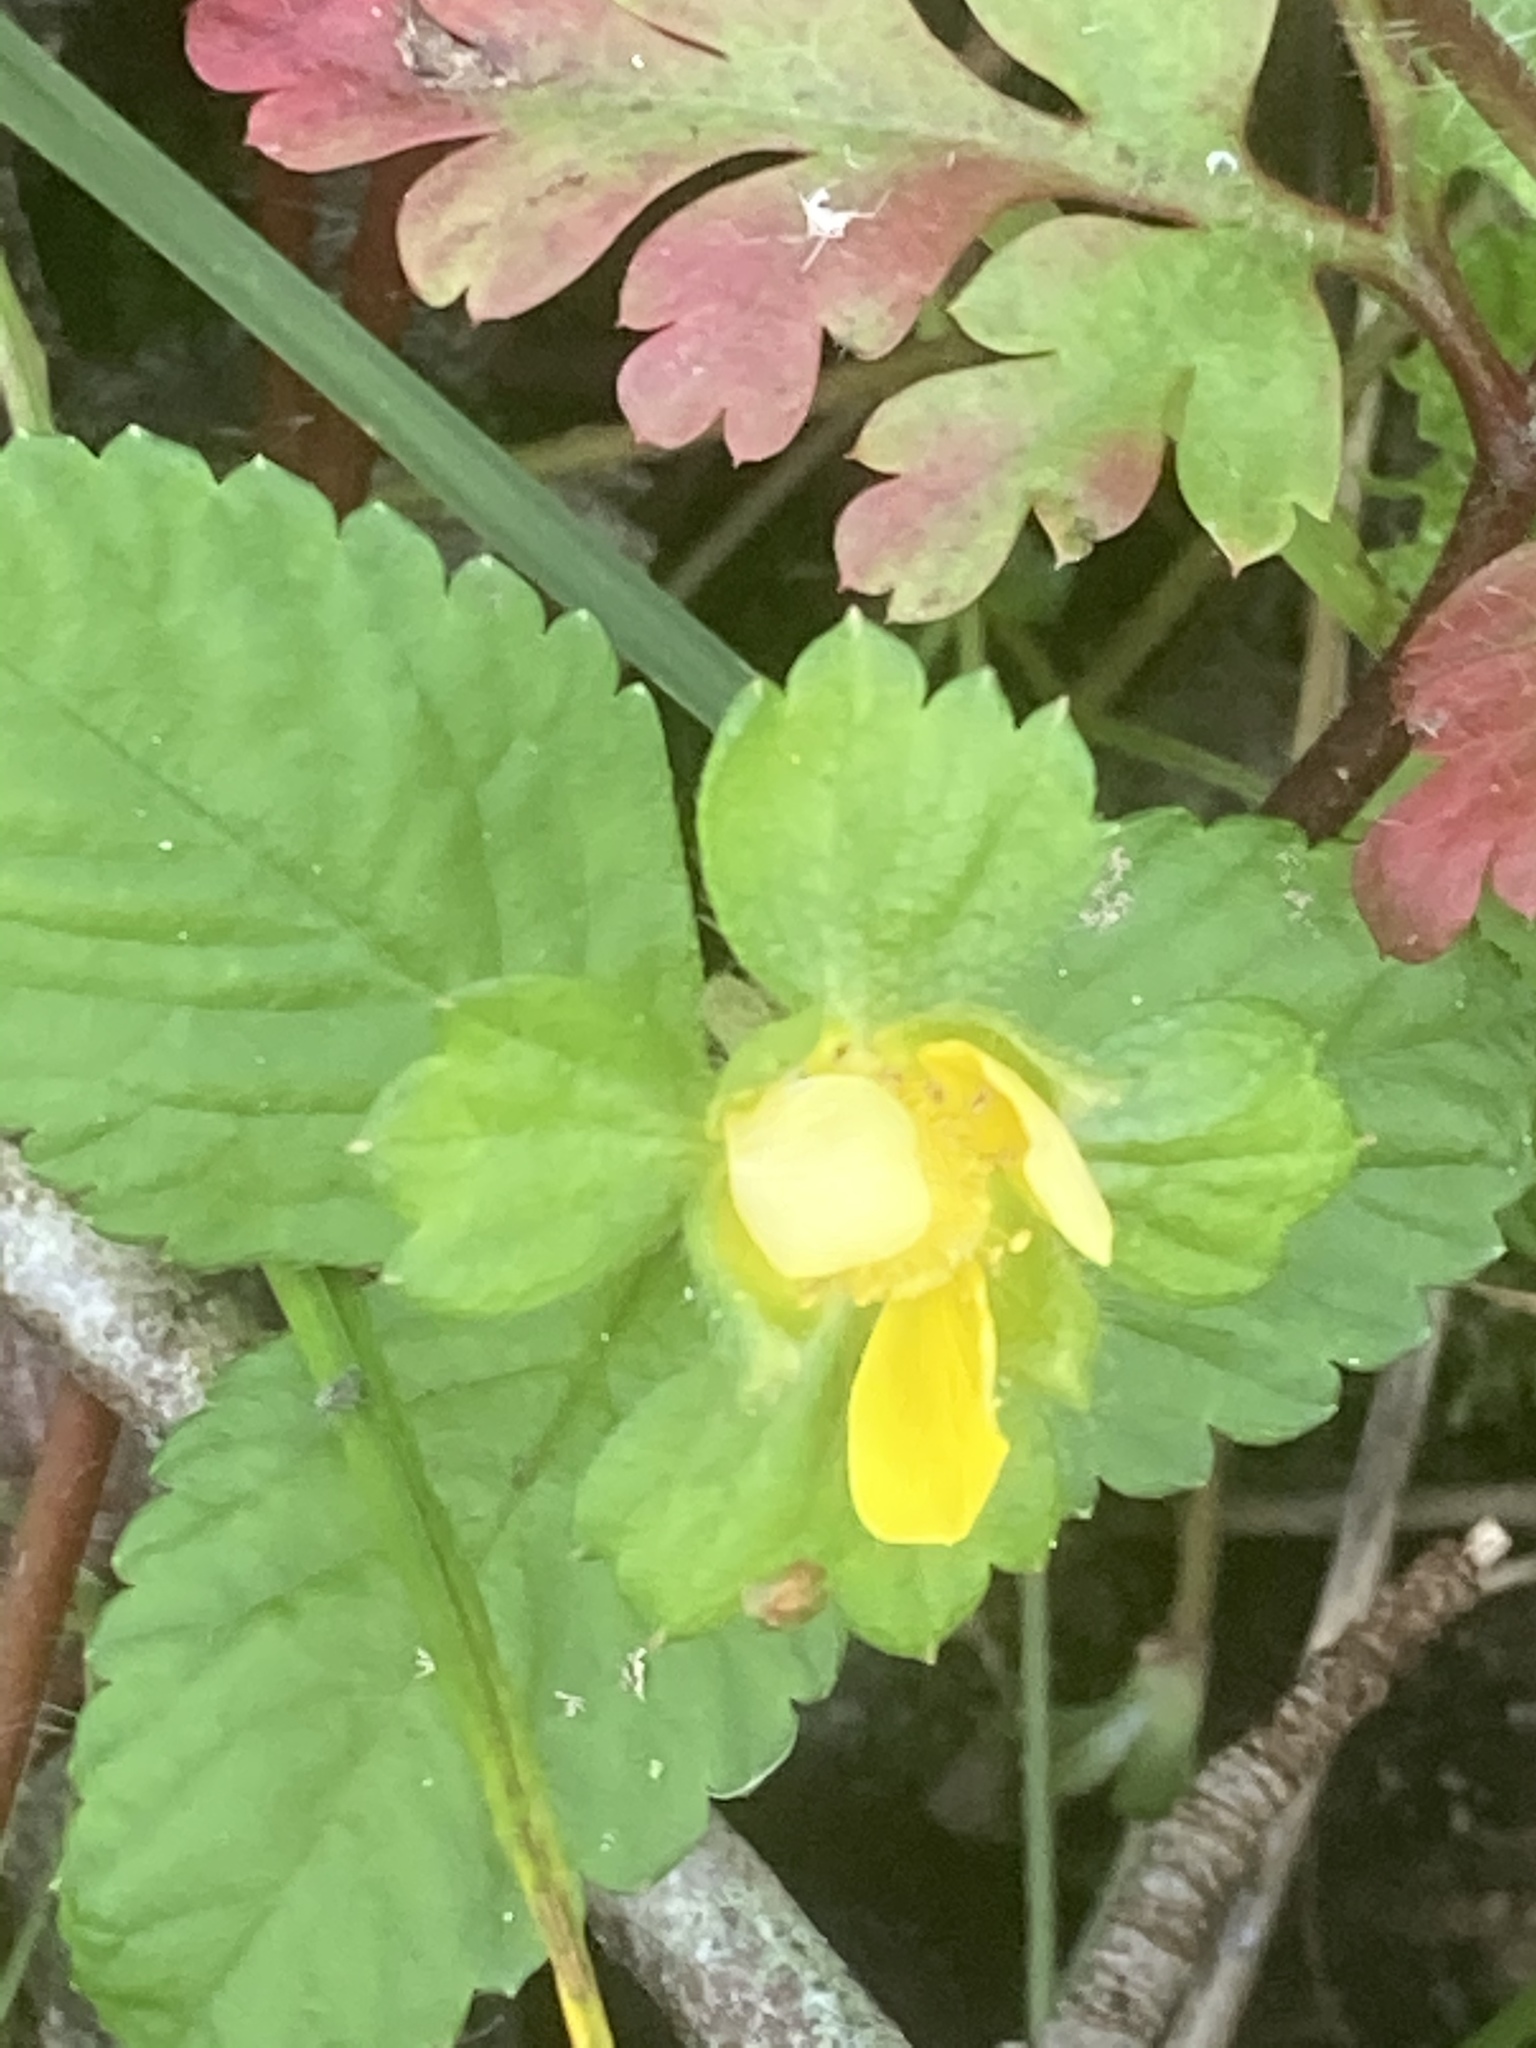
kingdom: Plantae
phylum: Tracheophyta
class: Magnoliopsida
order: Rosales
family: Rosaceae
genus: Potentilla
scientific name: Potentilla indica
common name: Yellow-flowered strawberry
